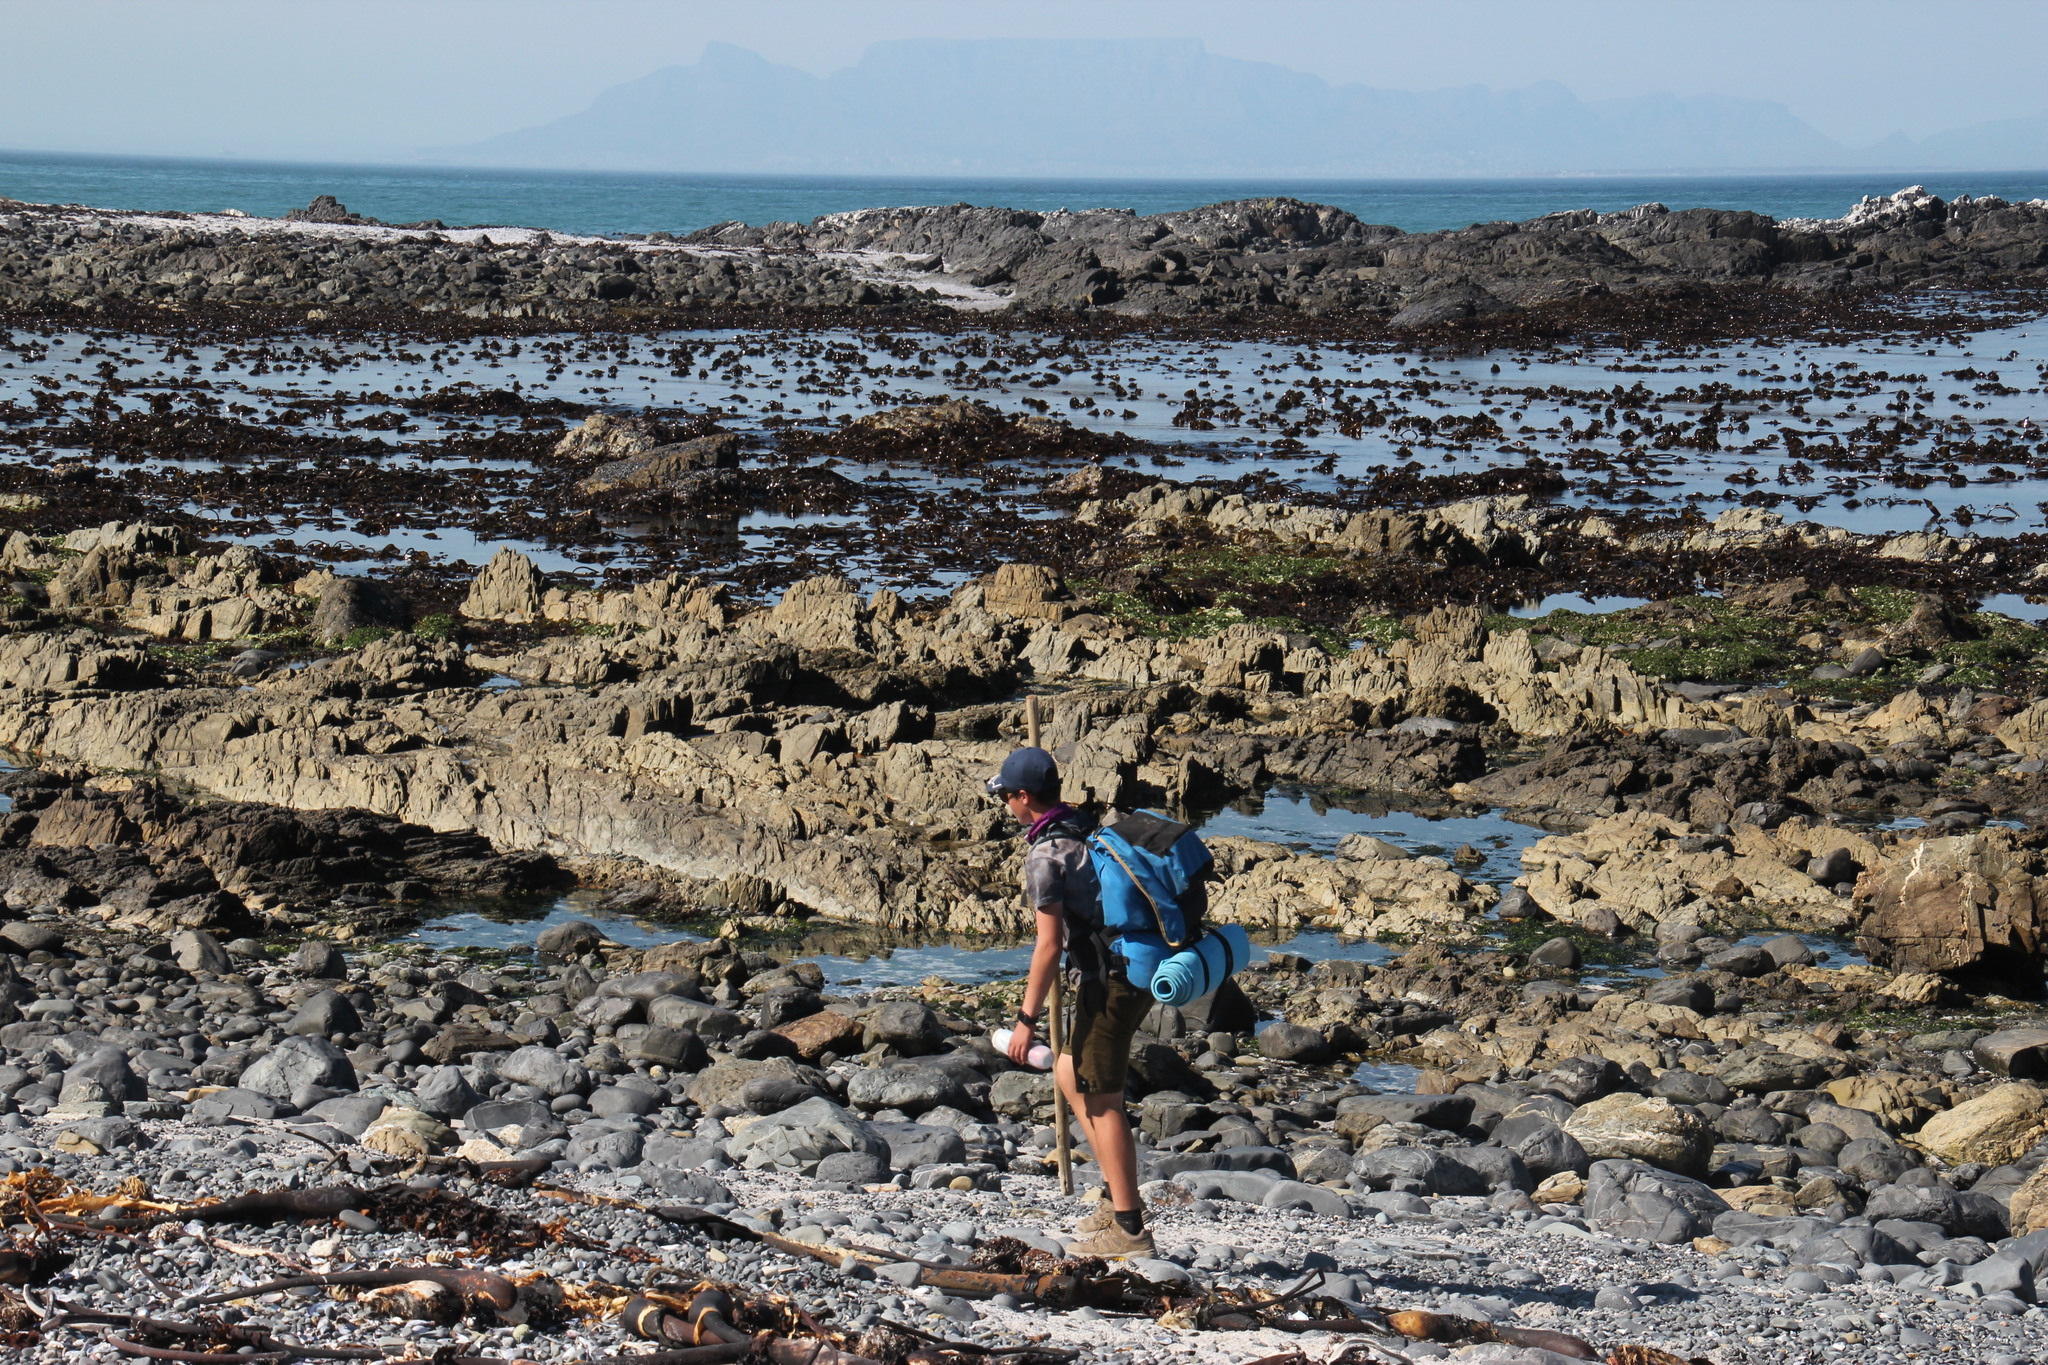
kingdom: Chromista
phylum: Ochrophyta
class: Phaeophyceae
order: Laminariales
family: Lessoniaceae
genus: Ecklonia
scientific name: Ecklonia
